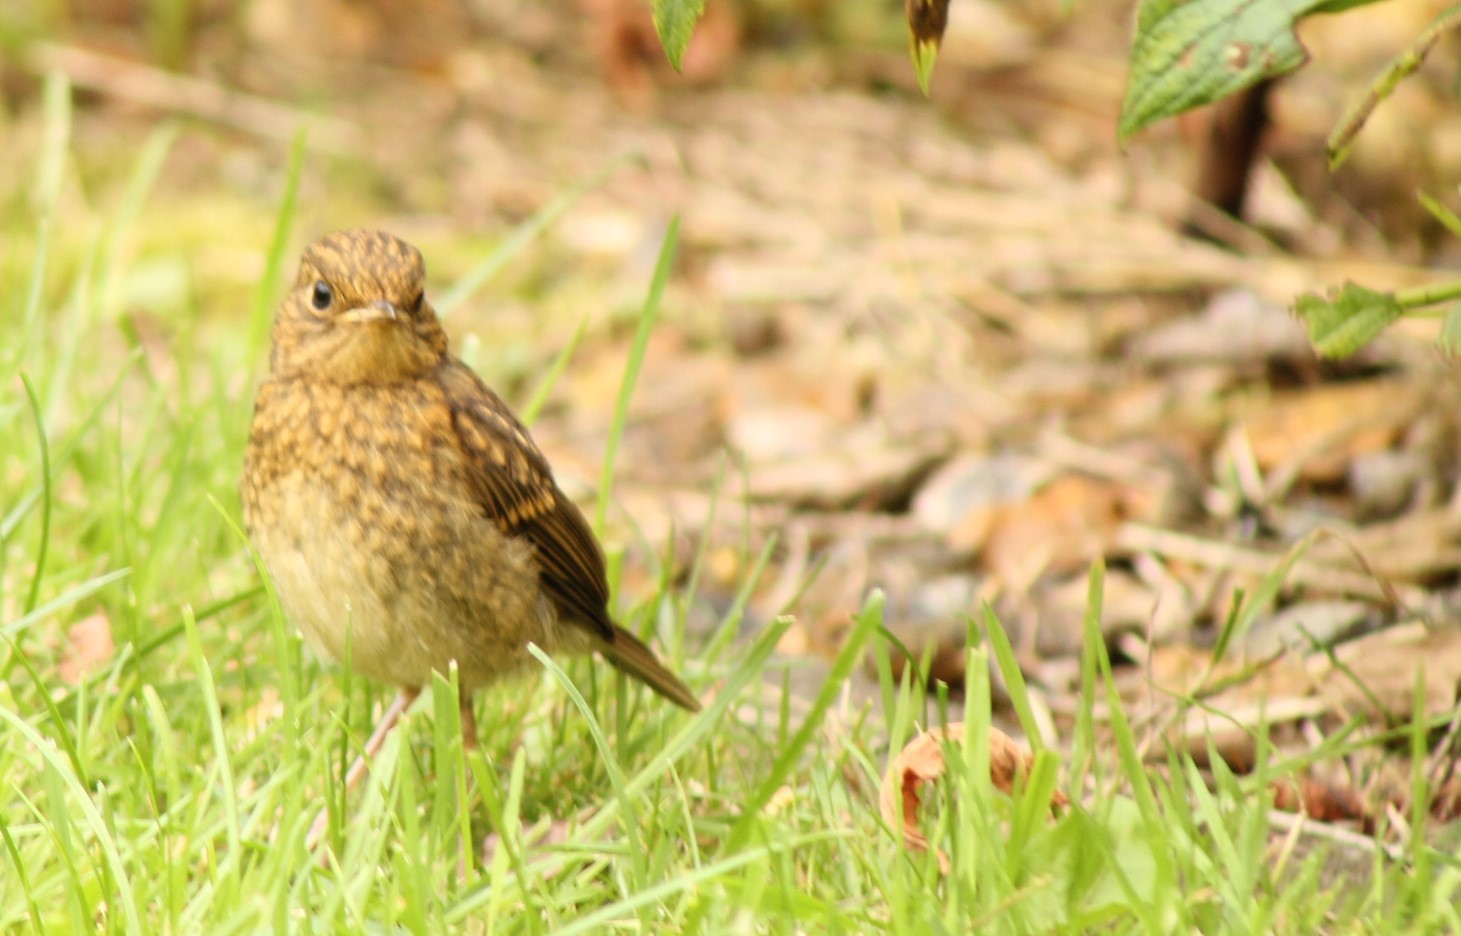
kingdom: Animalia
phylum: Chordata
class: Aves
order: Passeriformes
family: Muscicapidae
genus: Erithacus
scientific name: Erithacus rubecula
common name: European robin
